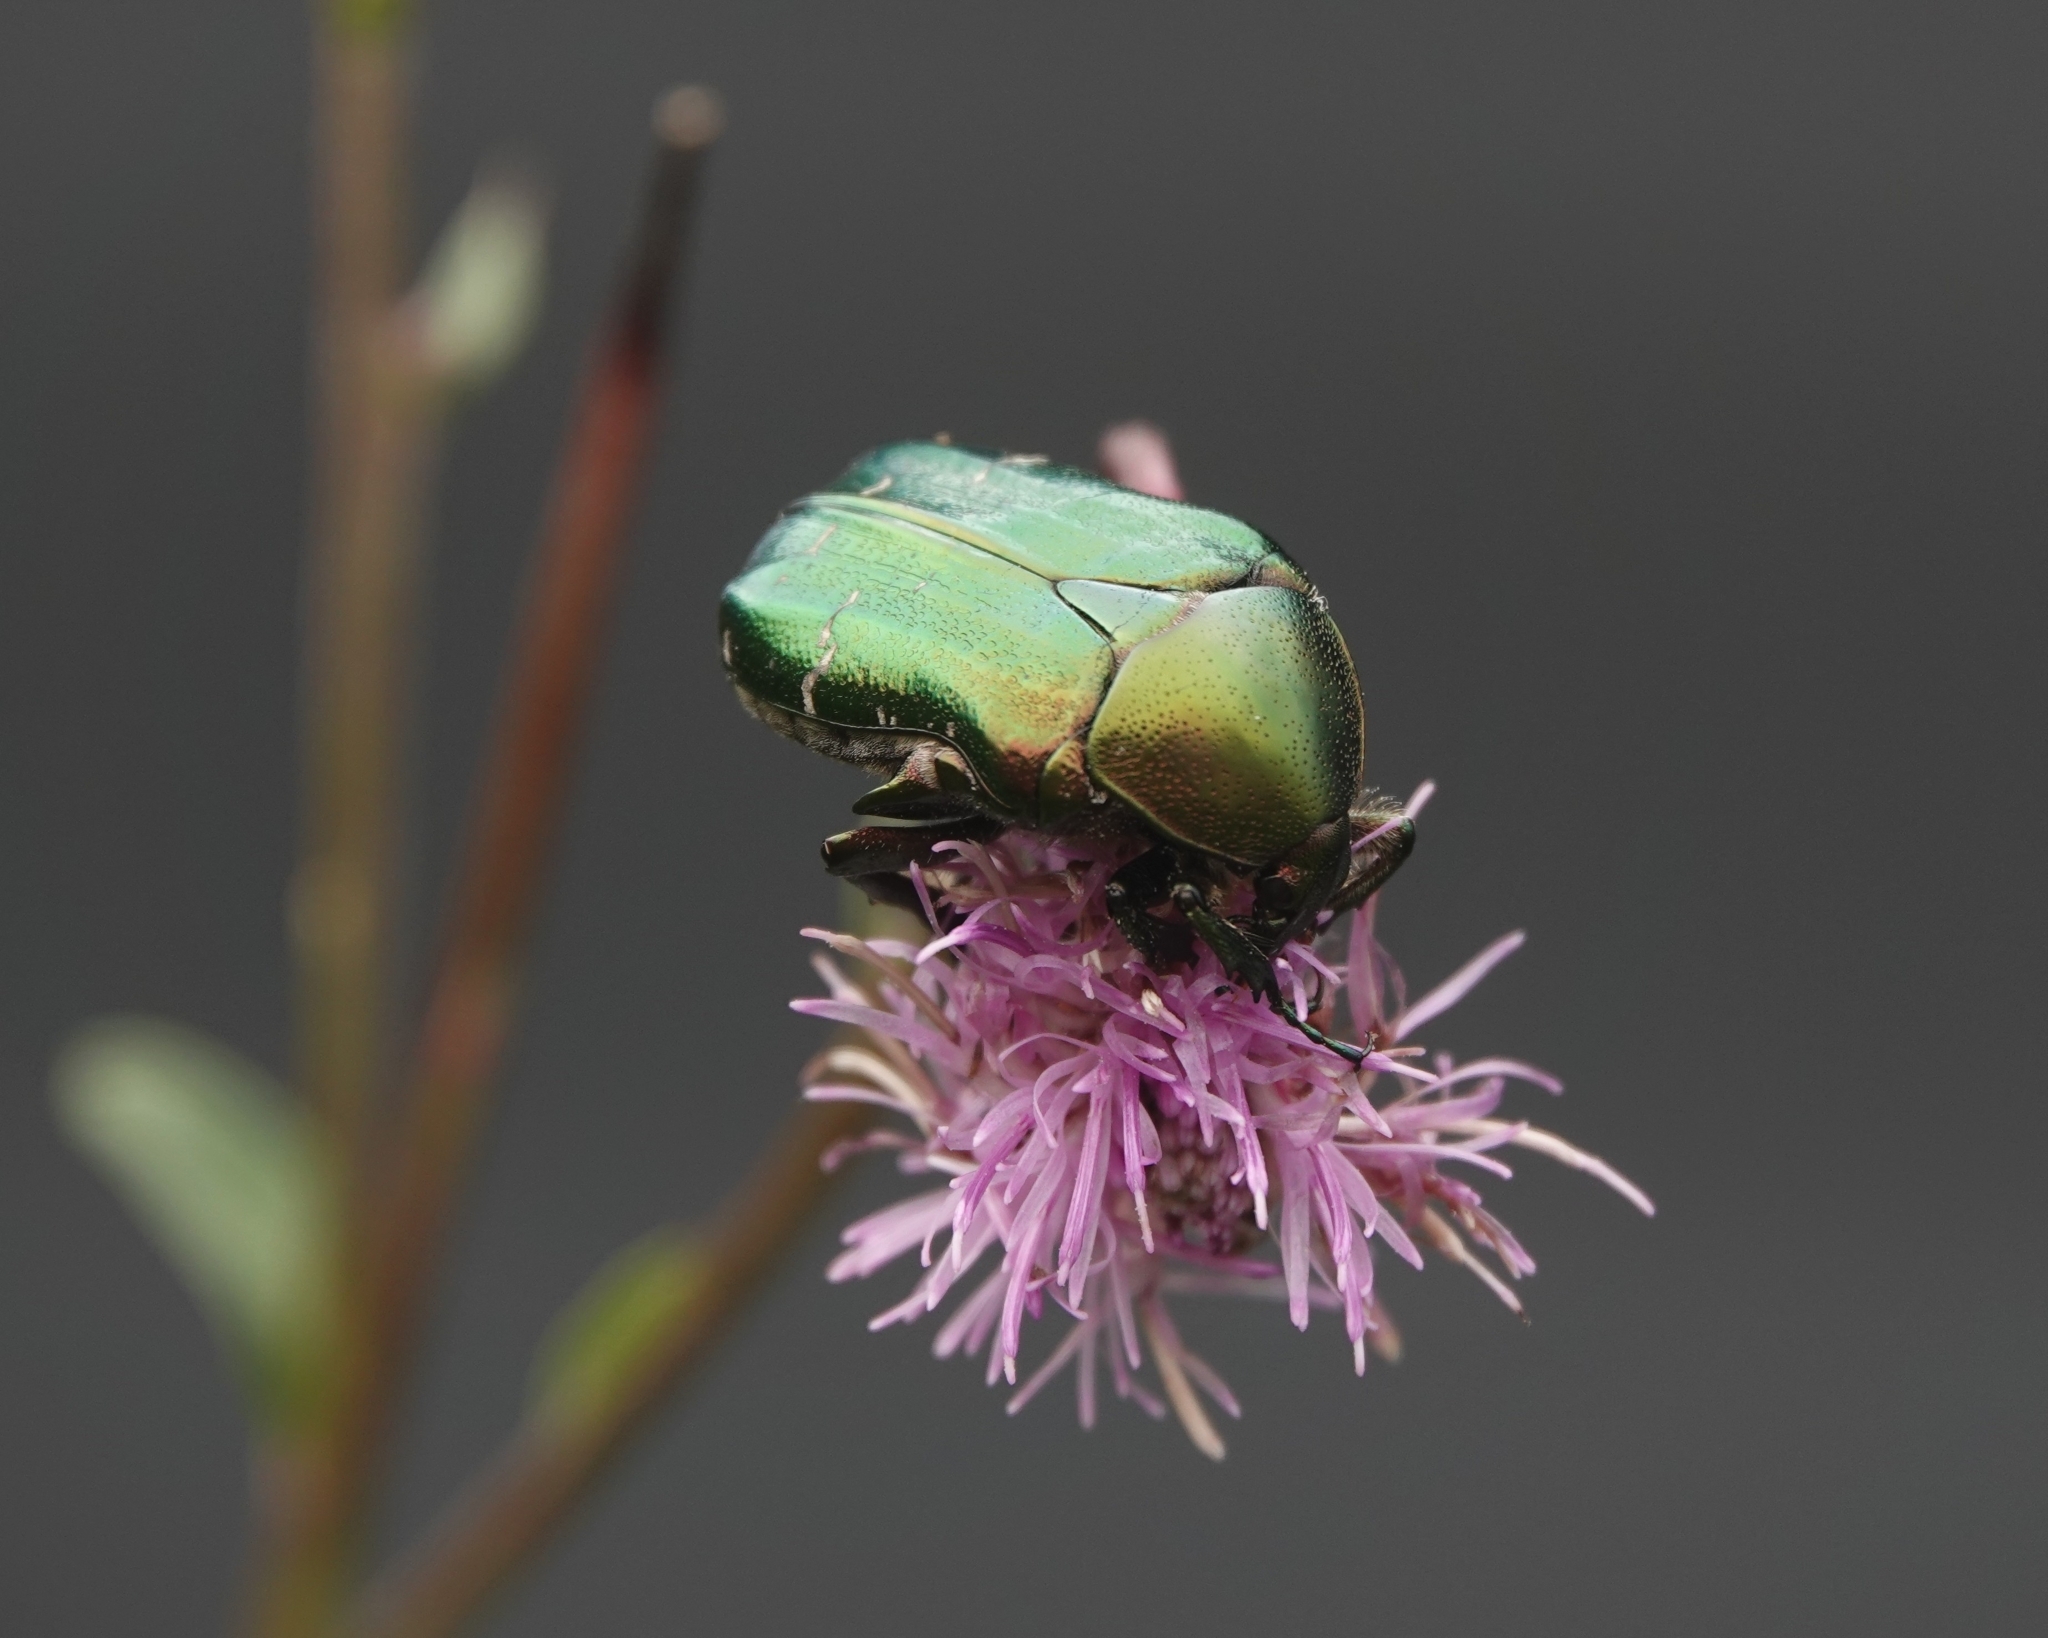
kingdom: Animalia
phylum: Arthropoda
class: Insecta
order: Coleoptera
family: Scarabaeidae
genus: Cetonia
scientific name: Cetonia aurata
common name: Rose chafer
